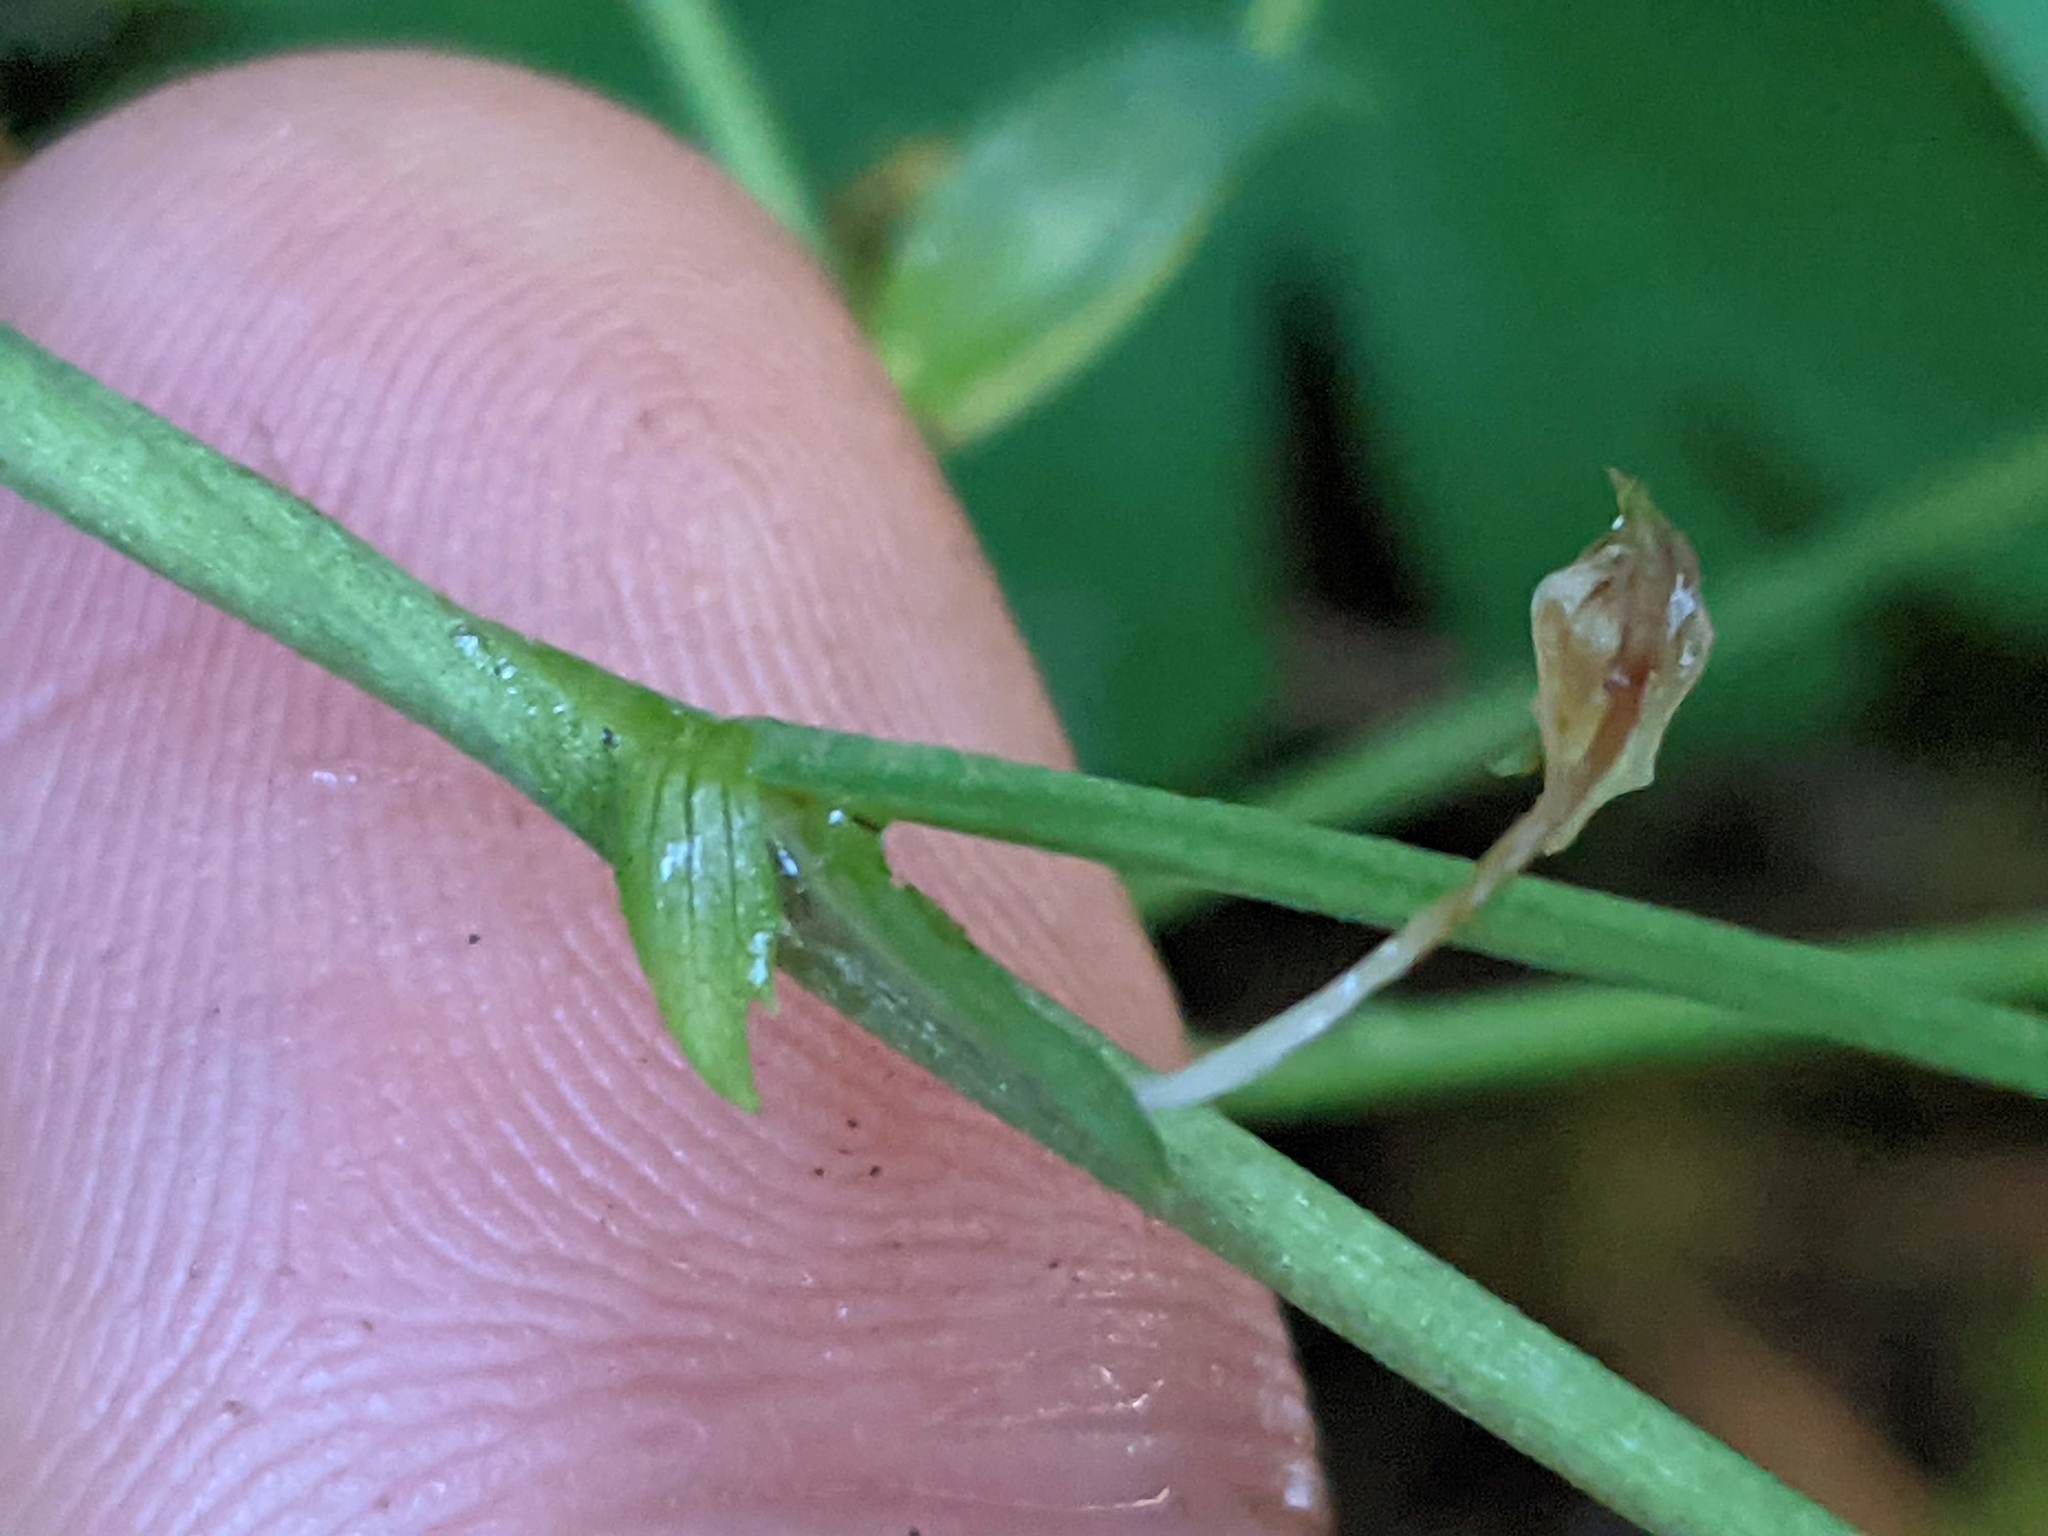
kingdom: Plantae
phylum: Tracheophyta
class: Magnoliopsida
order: Malpighiales
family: Violaceae
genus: Viola
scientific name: Viola lobata
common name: Pine violet
